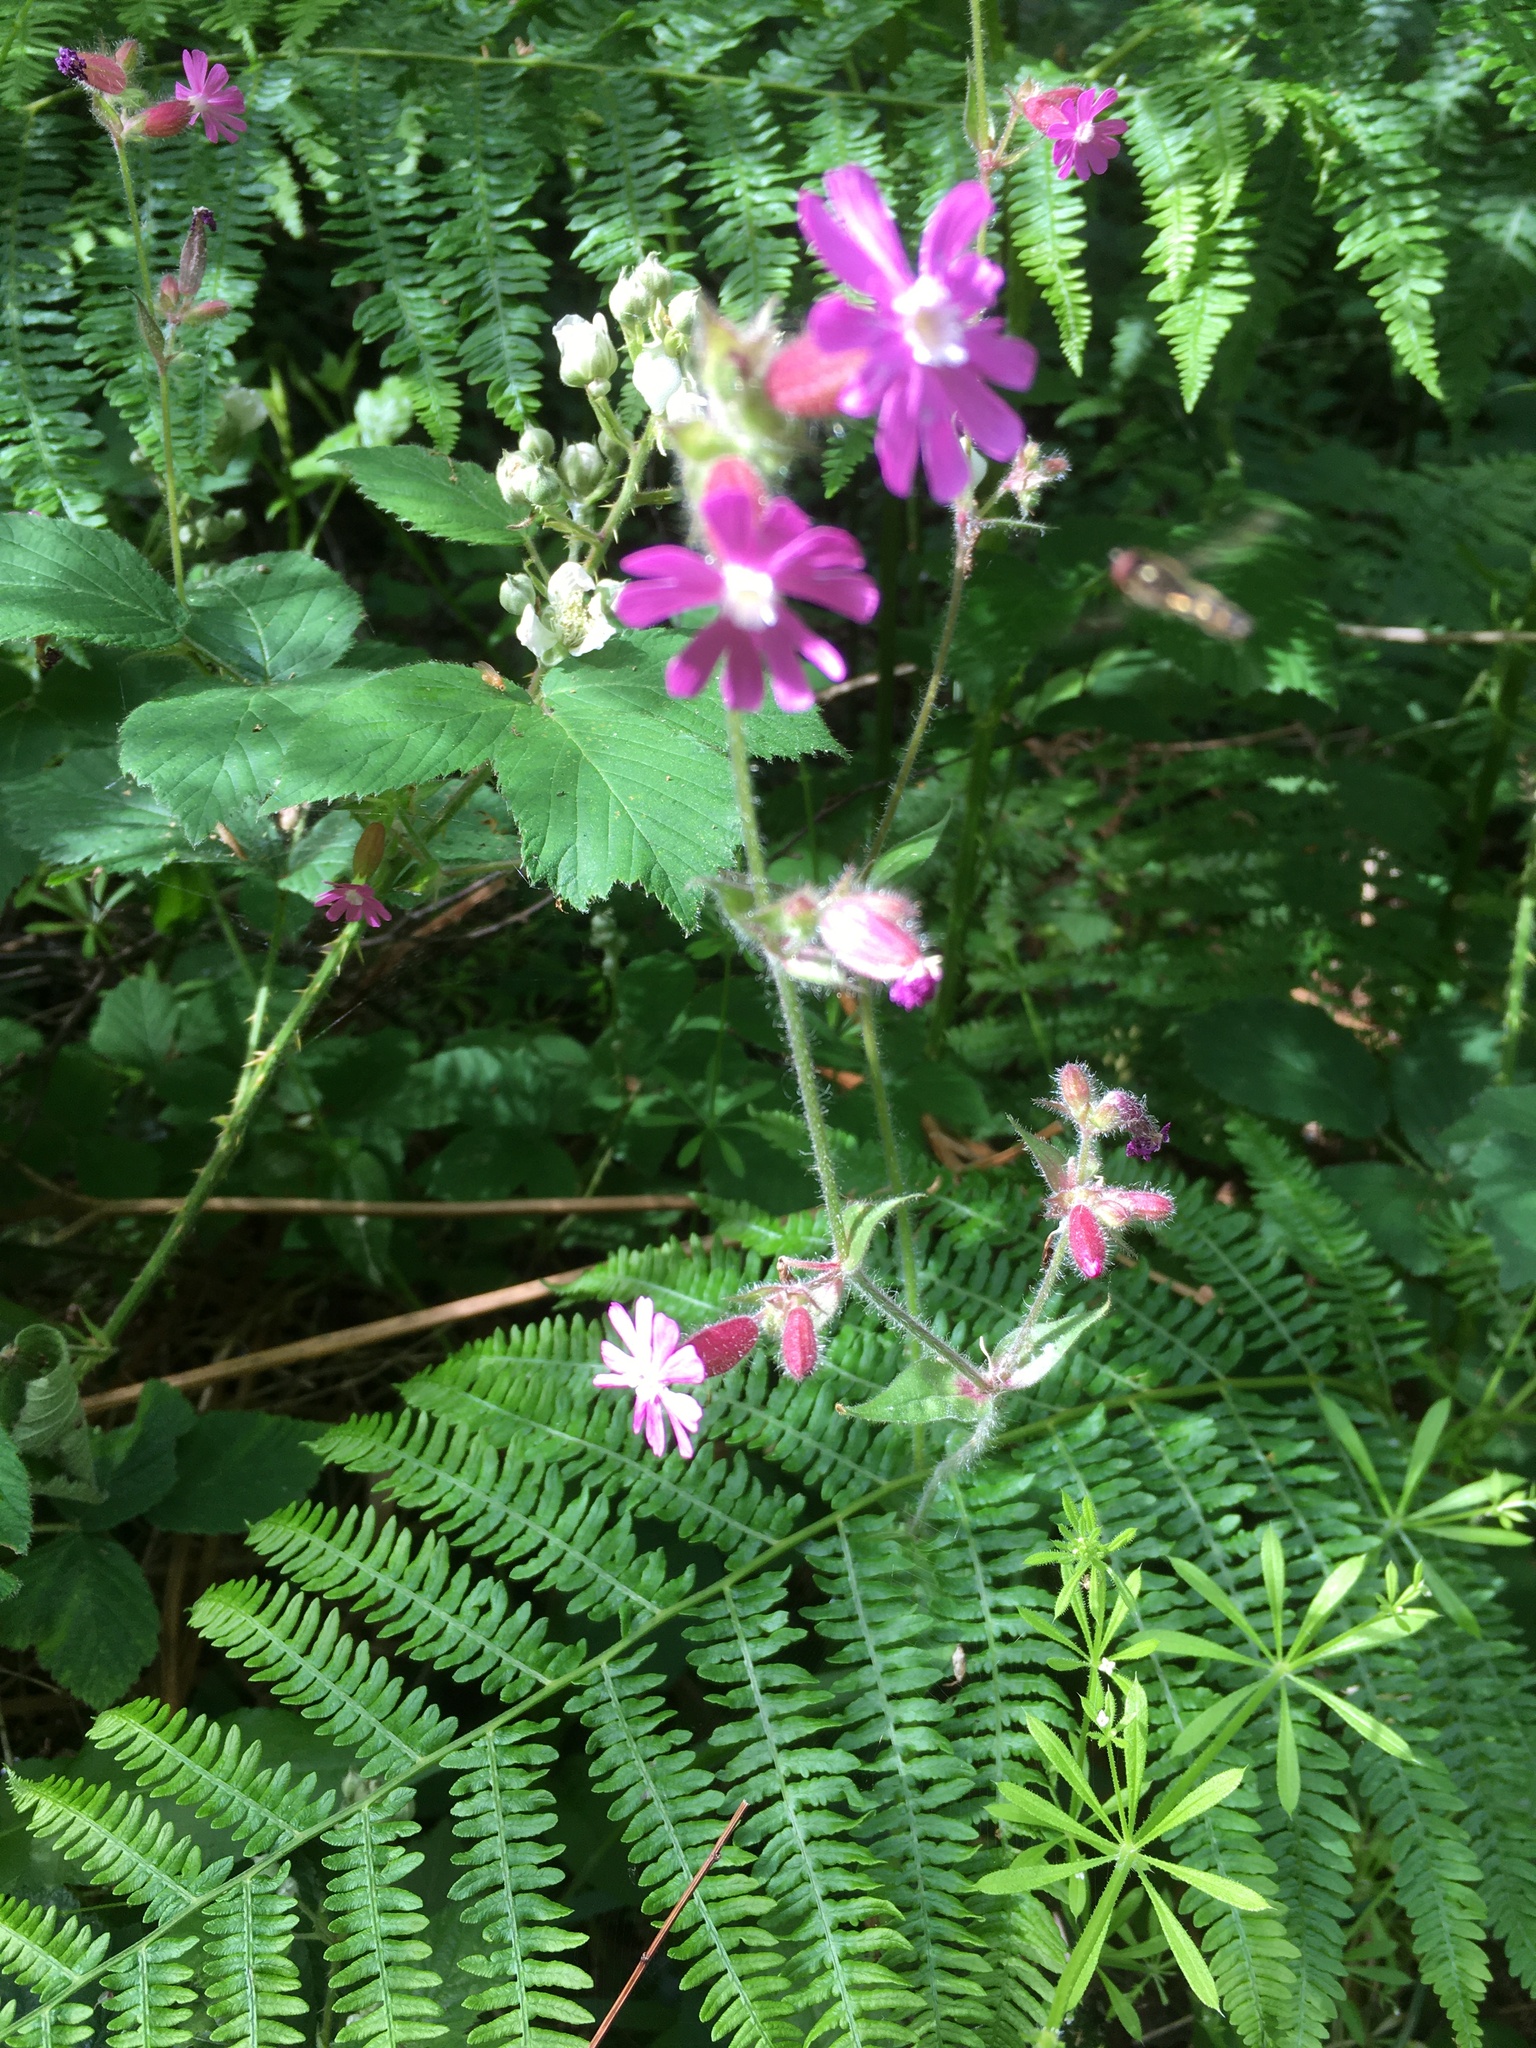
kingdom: Plantae
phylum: Tracheophyta
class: Magnoliopsida
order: Caryophyllales
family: Caryophyllaceae
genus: Silene
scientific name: Silene dioica
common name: Red campion
